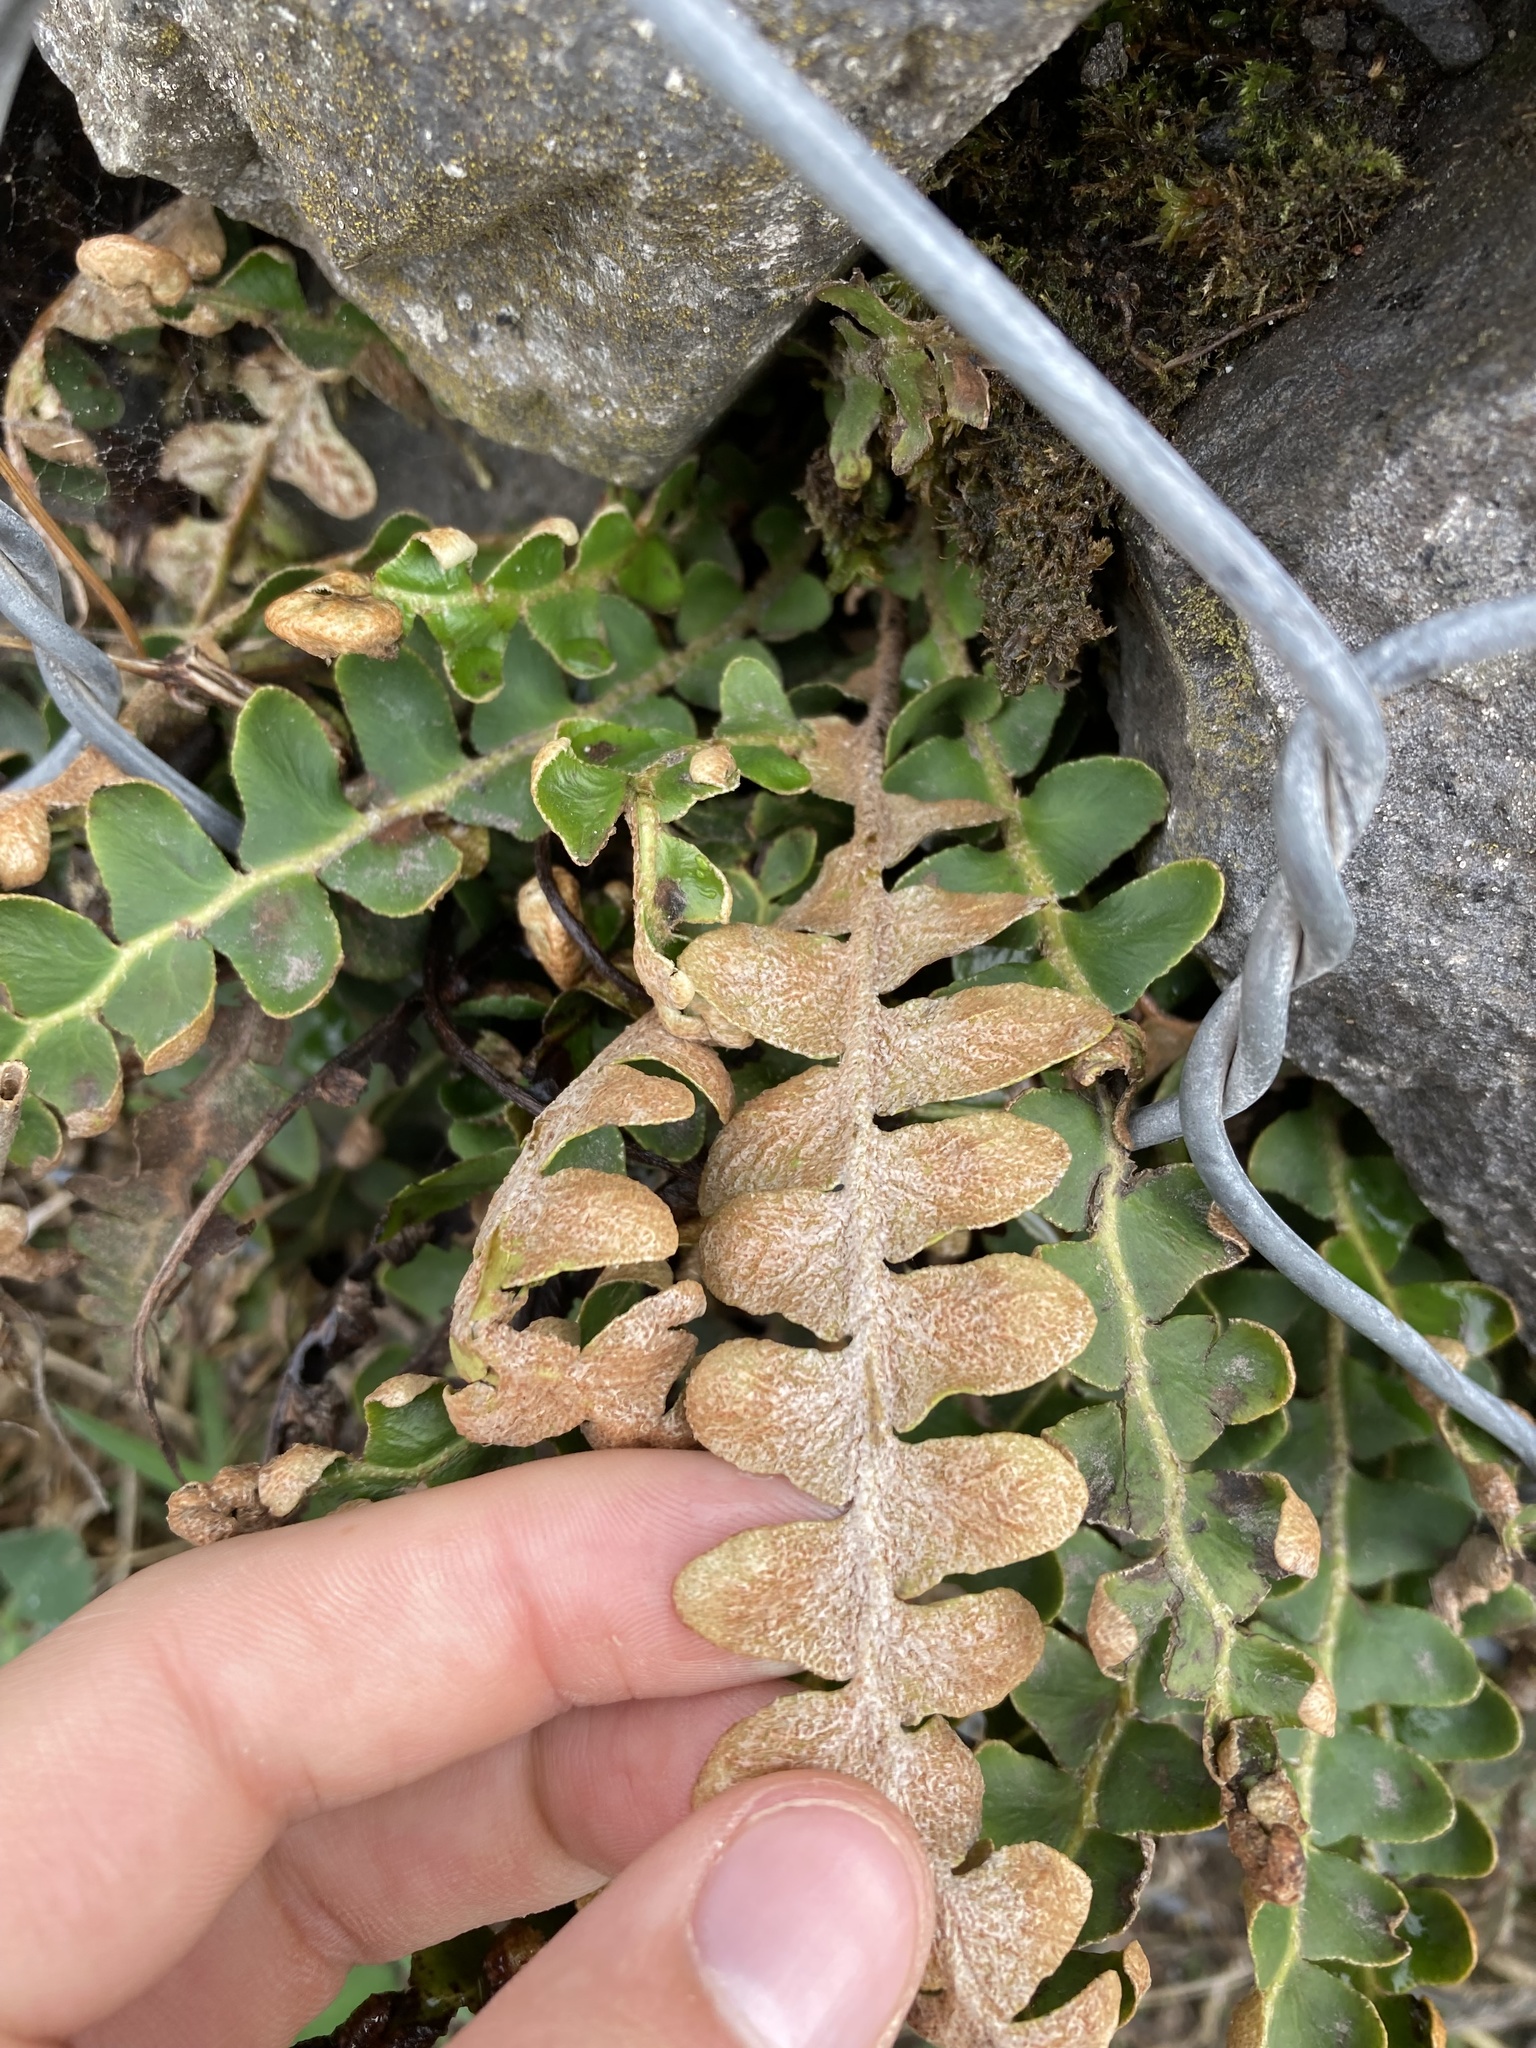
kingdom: Plantae
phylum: Tracheophyta
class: Polypodiopsida
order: Polypodiales
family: Aspleniaceae
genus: Asplenium
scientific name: Asplenium ceterach
